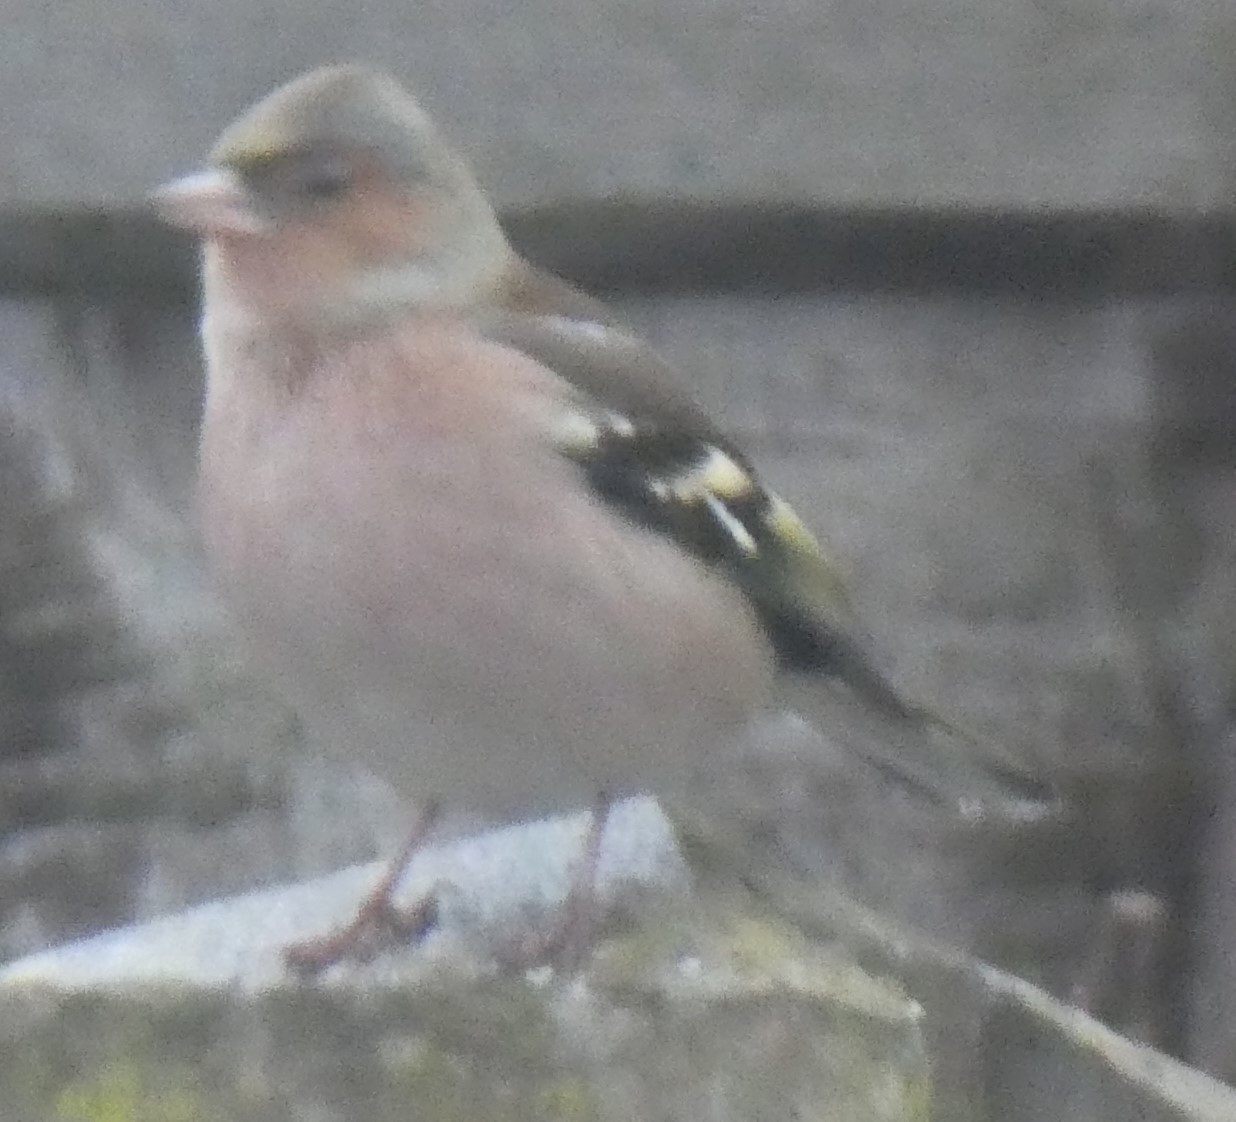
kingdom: Animalia
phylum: Chordata
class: Aves
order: Passeriformes
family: Fringillidae
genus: Fringilla
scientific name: Fringilla coelebs
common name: Common chaffinch
